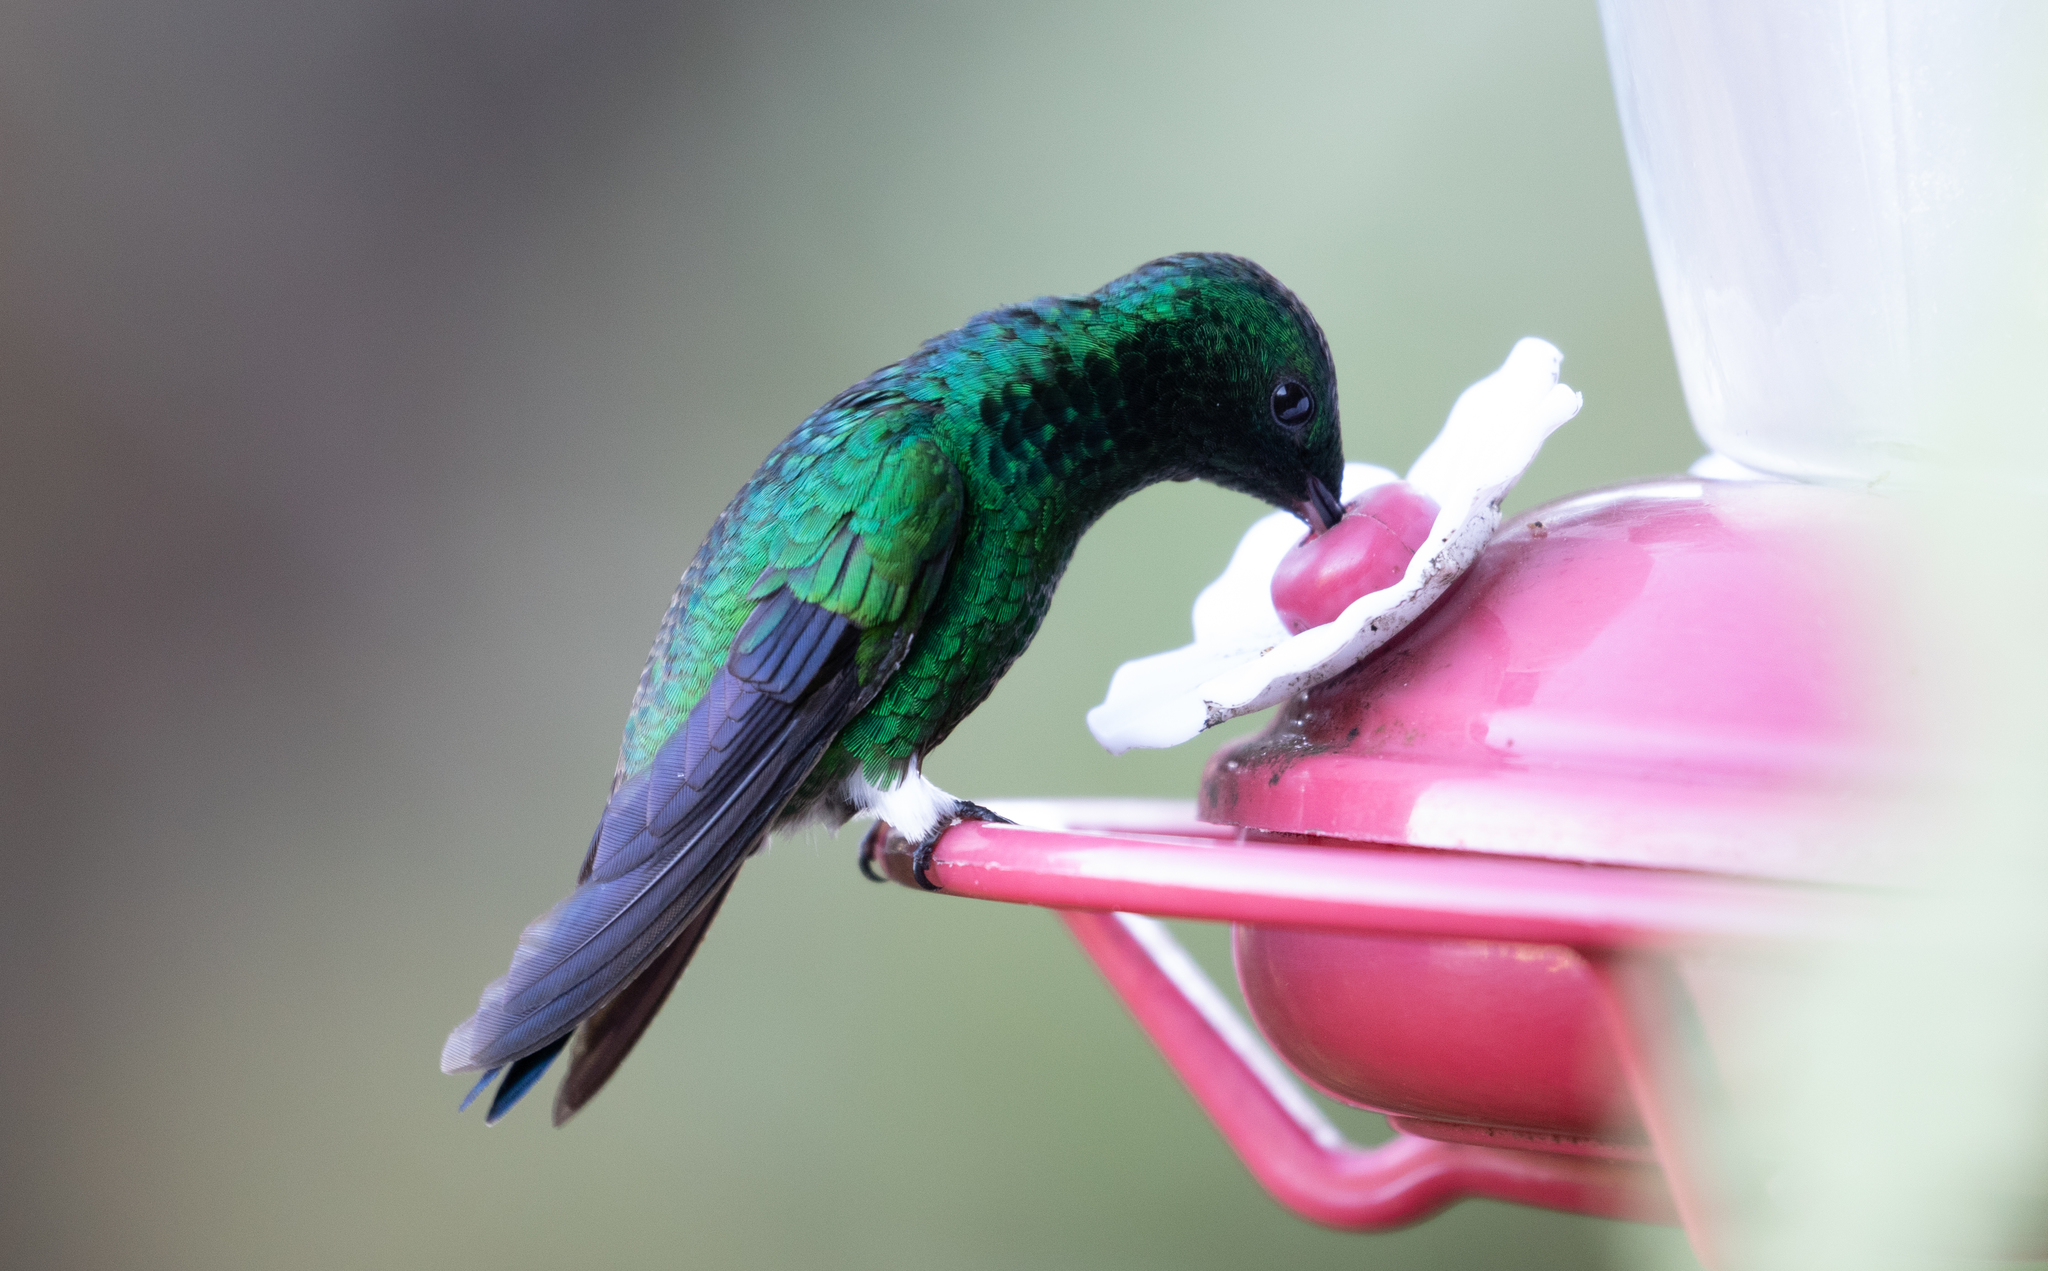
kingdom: Animalia
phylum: Chordata
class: Aves
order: Apodiformes
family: Trochilidae
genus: Saucerottia
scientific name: Saucerottia saucerottei
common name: Steely-vented hummingbird
